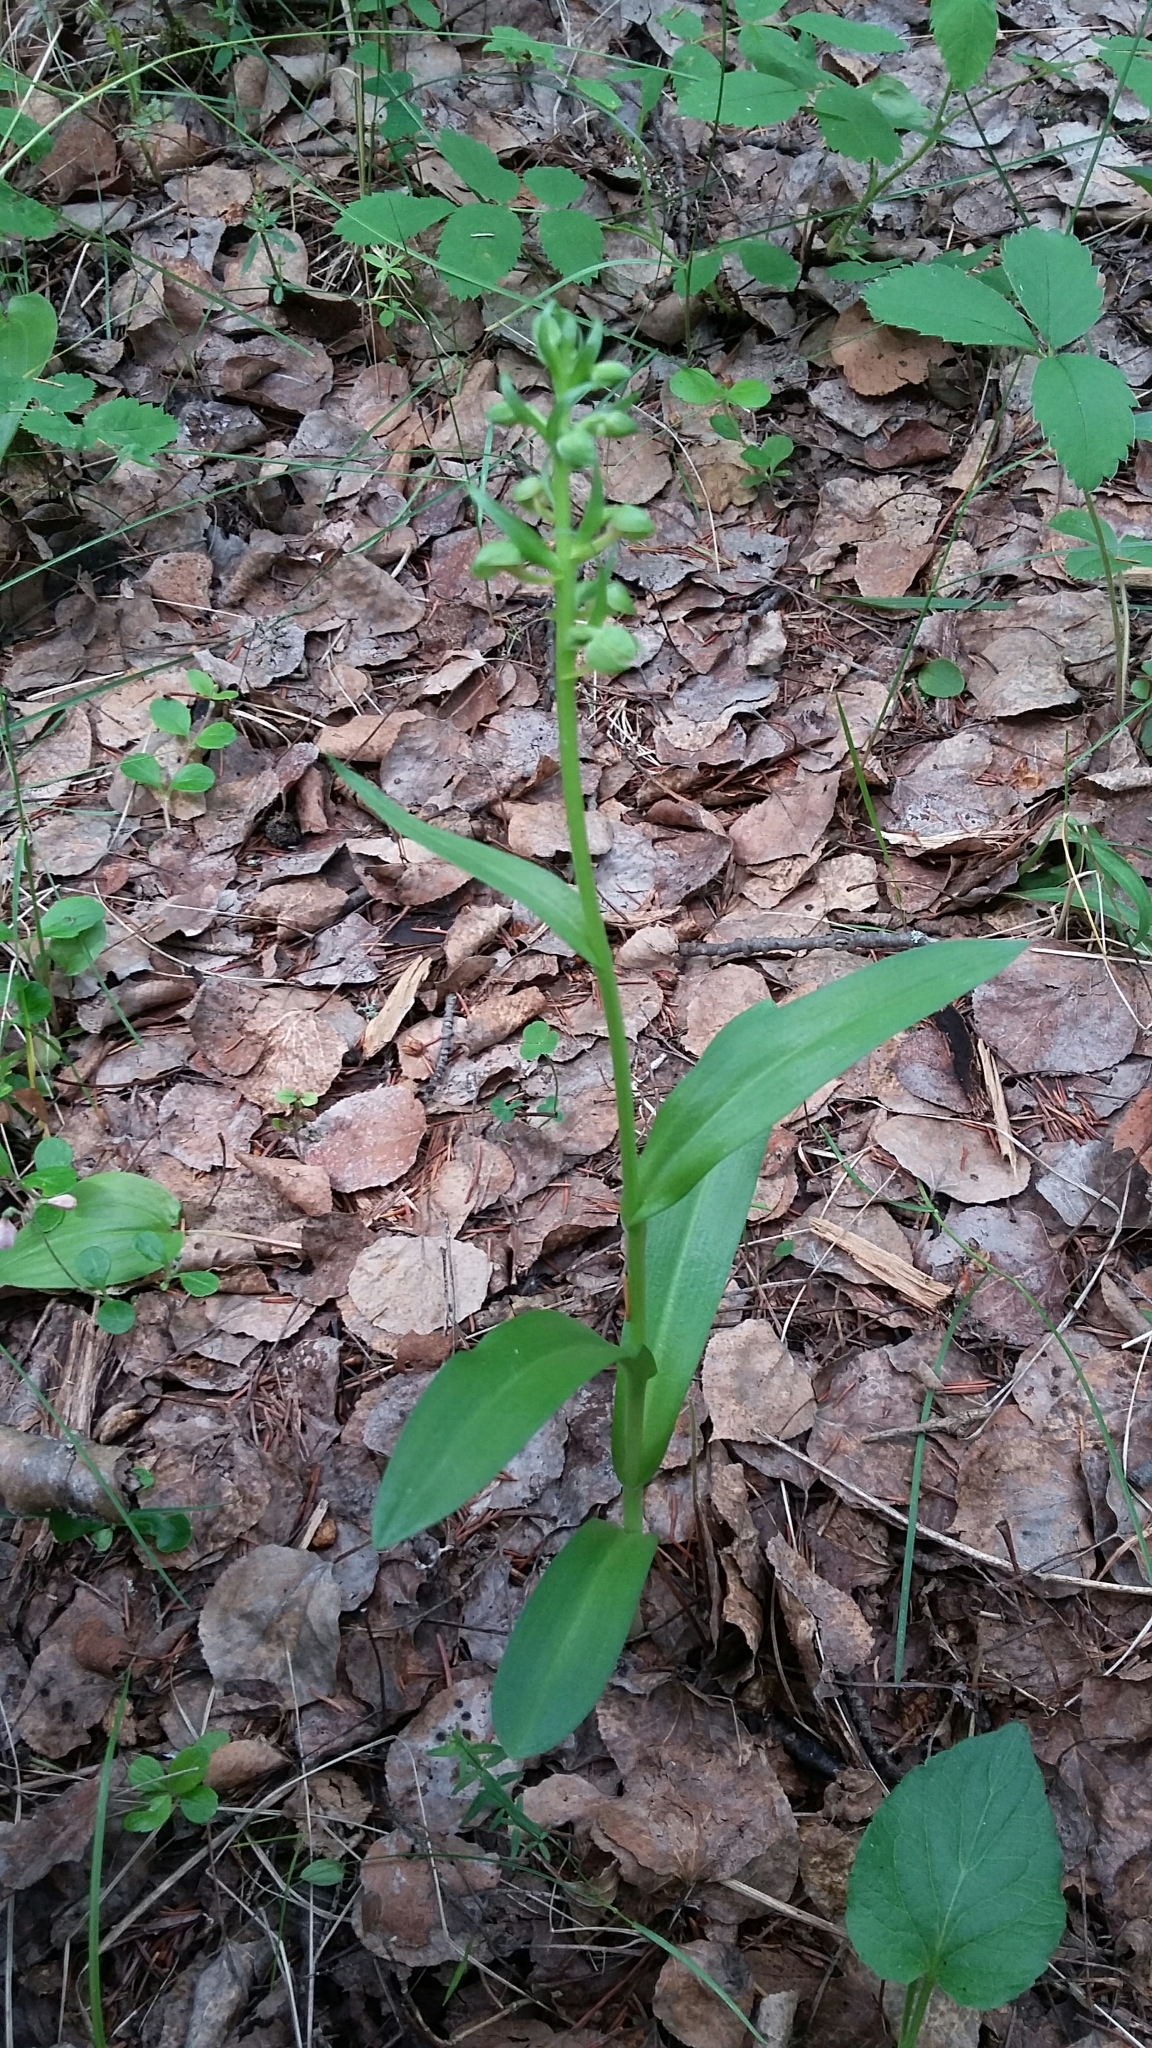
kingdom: Plantae
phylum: Tracheophyta
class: Liliopsida
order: Asparagales
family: Orchidaceae
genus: Dactylorhiza
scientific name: Dactylorhiza viridis
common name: Longbract frog orchid
